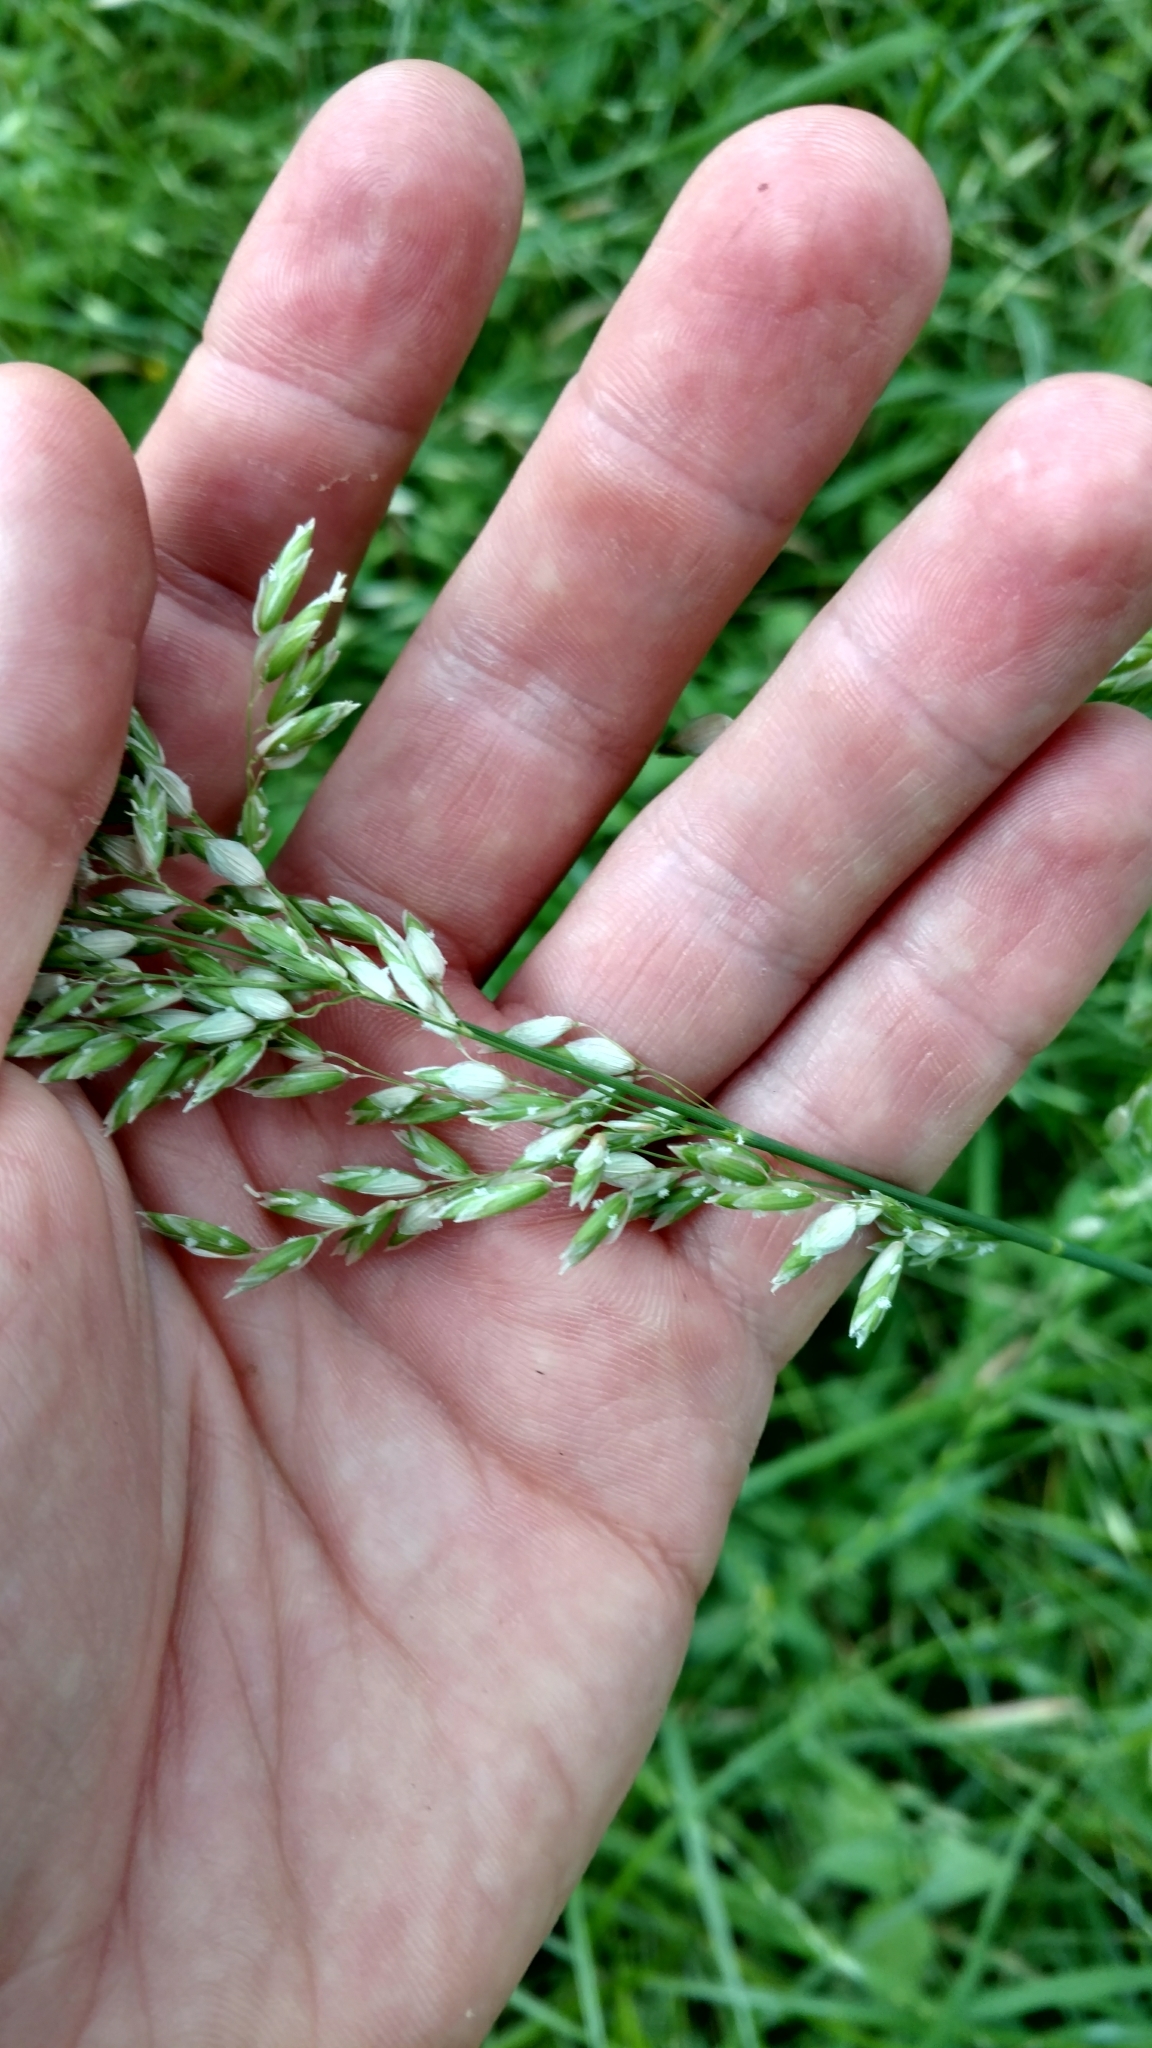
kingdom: Plantae
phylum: Tracheophyta
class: Liliopsida
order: Poales
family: Poaceae
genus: Melica
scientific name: Melica nitens
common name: Three-flower melic
